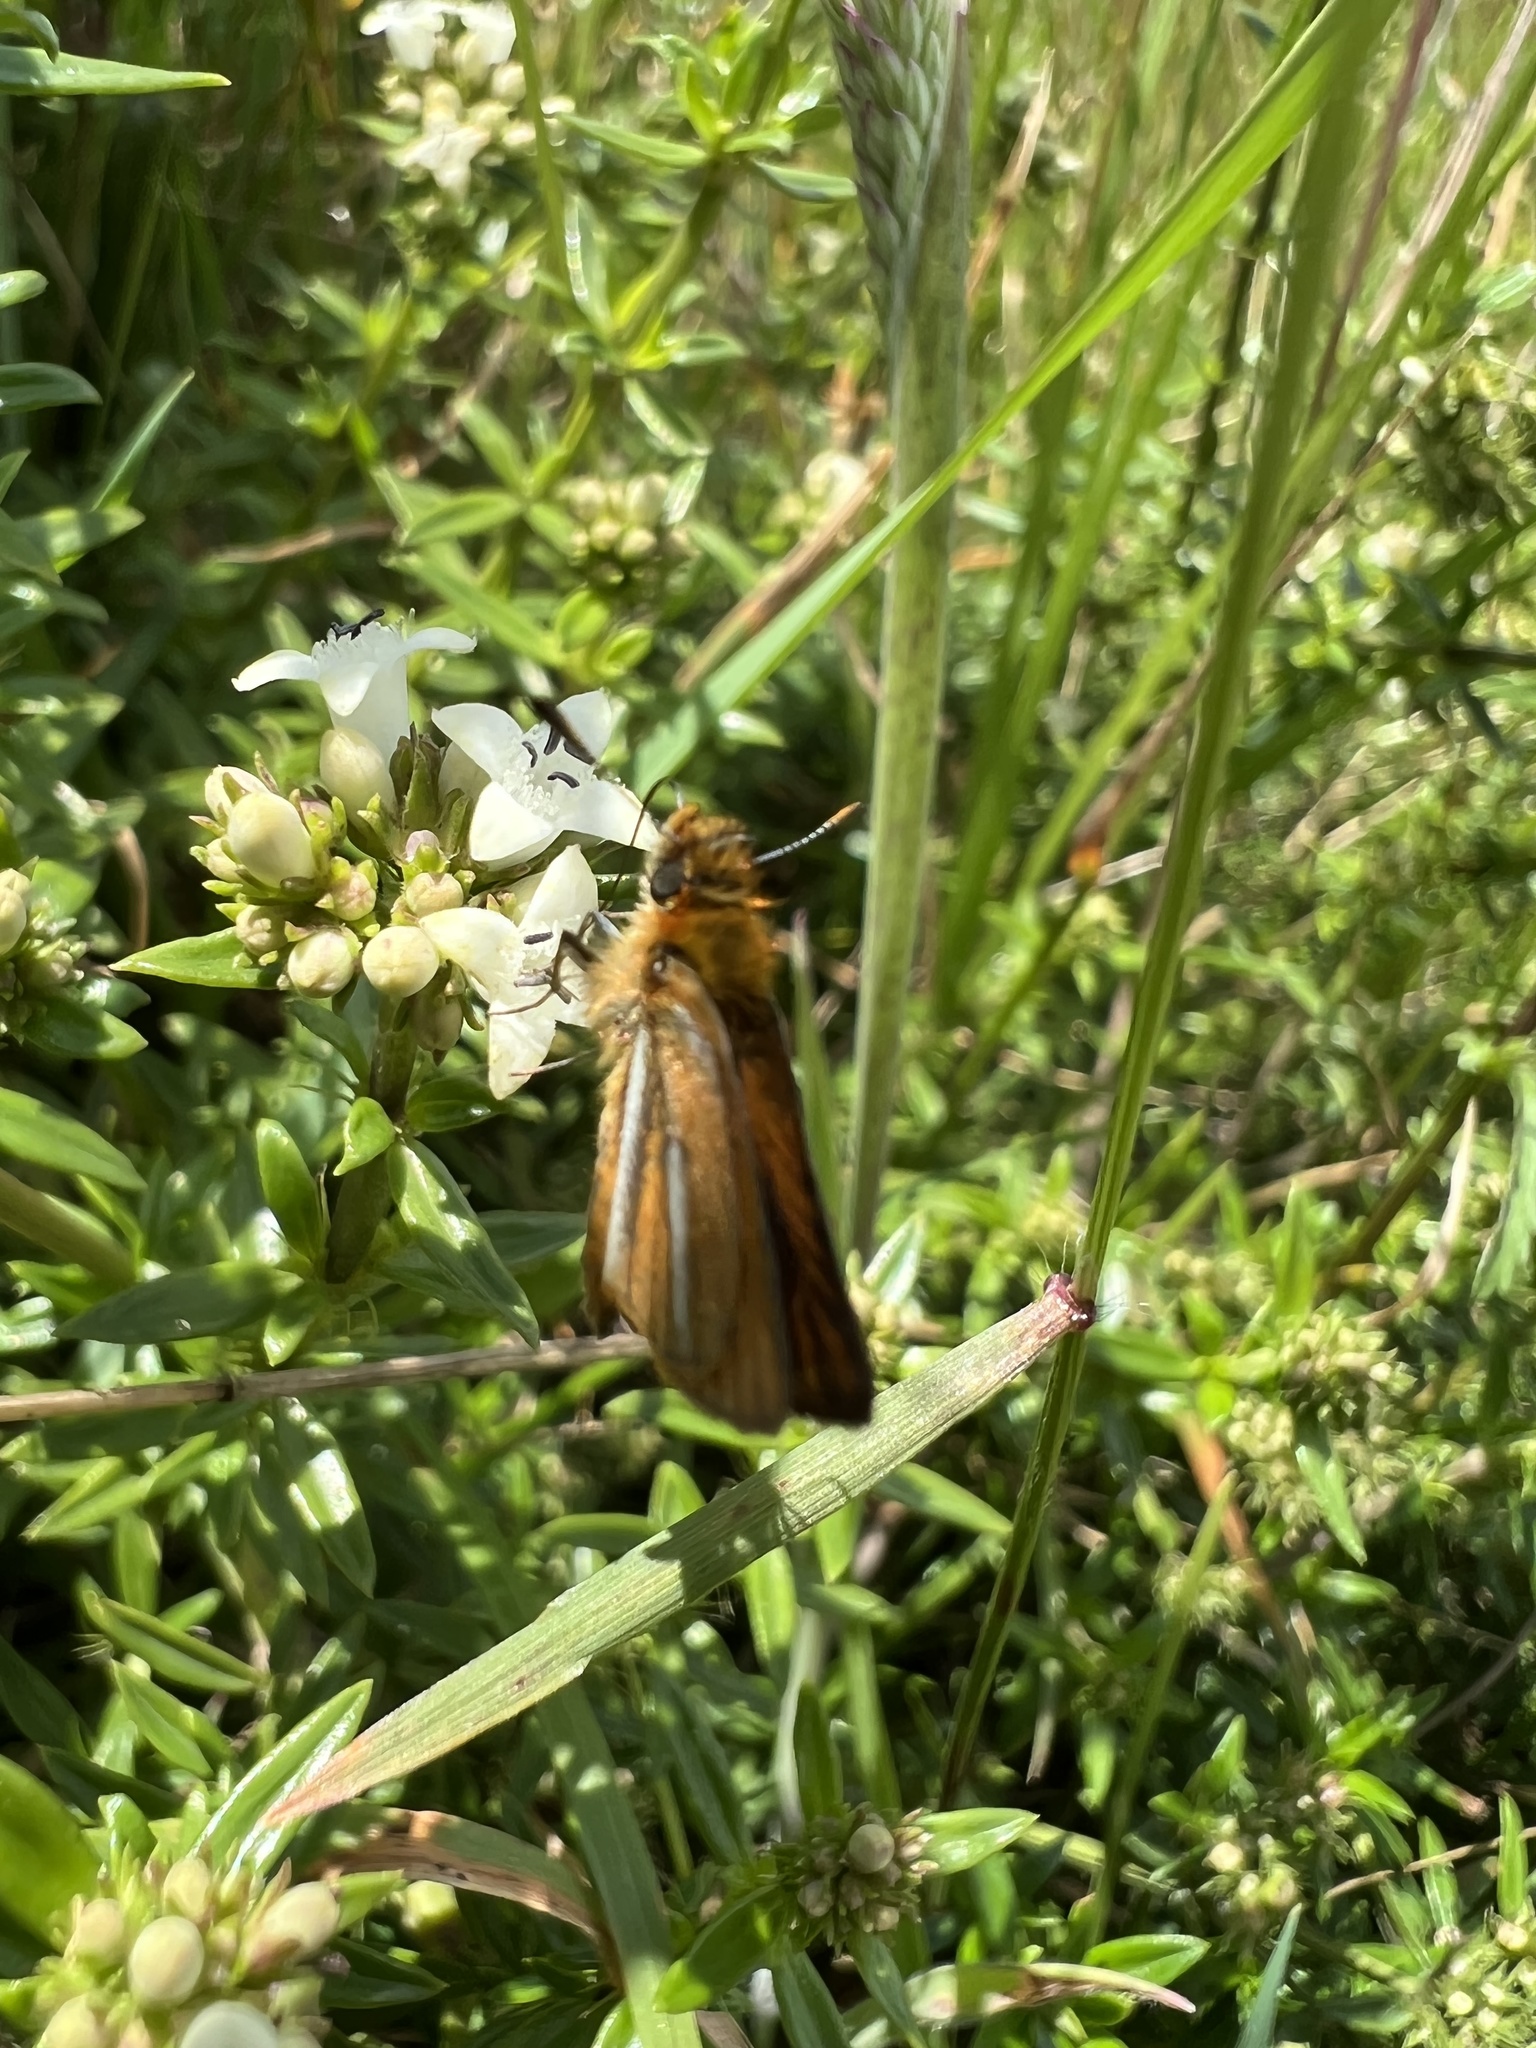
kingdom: Animalia
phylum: Arthropoda
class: Insecta
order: Lepidoptera
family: Hesperiidae
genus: Ancyloxypha
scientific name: Ancyloxypha melanoneura
